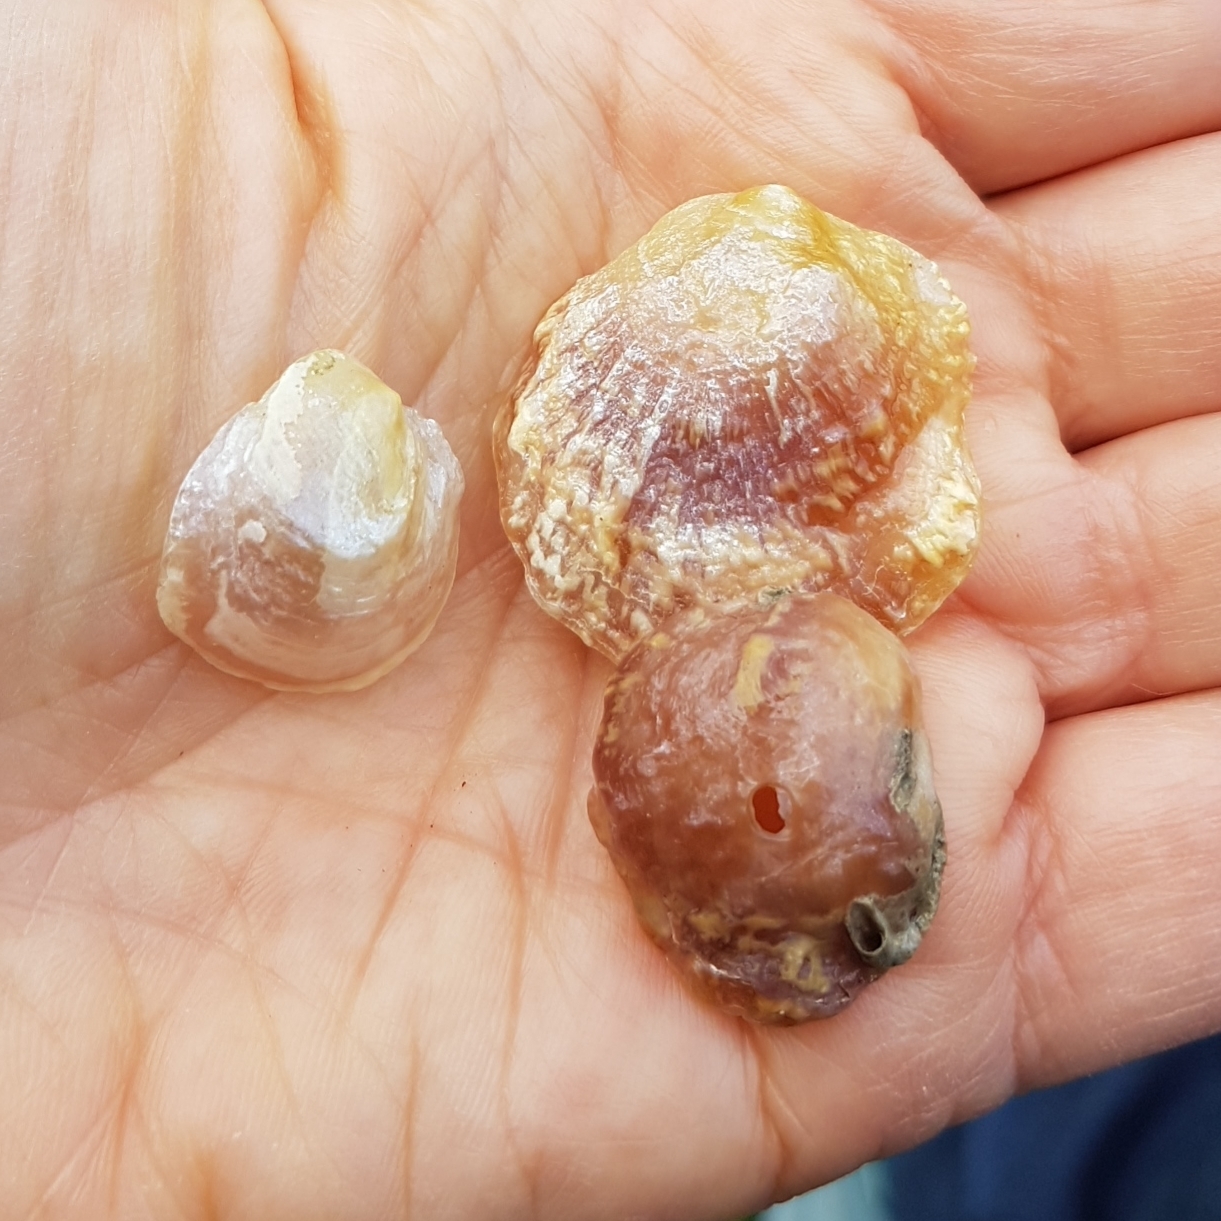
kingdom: Animalia
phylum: Mollusca
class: Bivalvia
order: Pectinida
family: Anomiidae
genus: Anomia
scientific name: Anomia ephippium
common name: Saddle oyster
